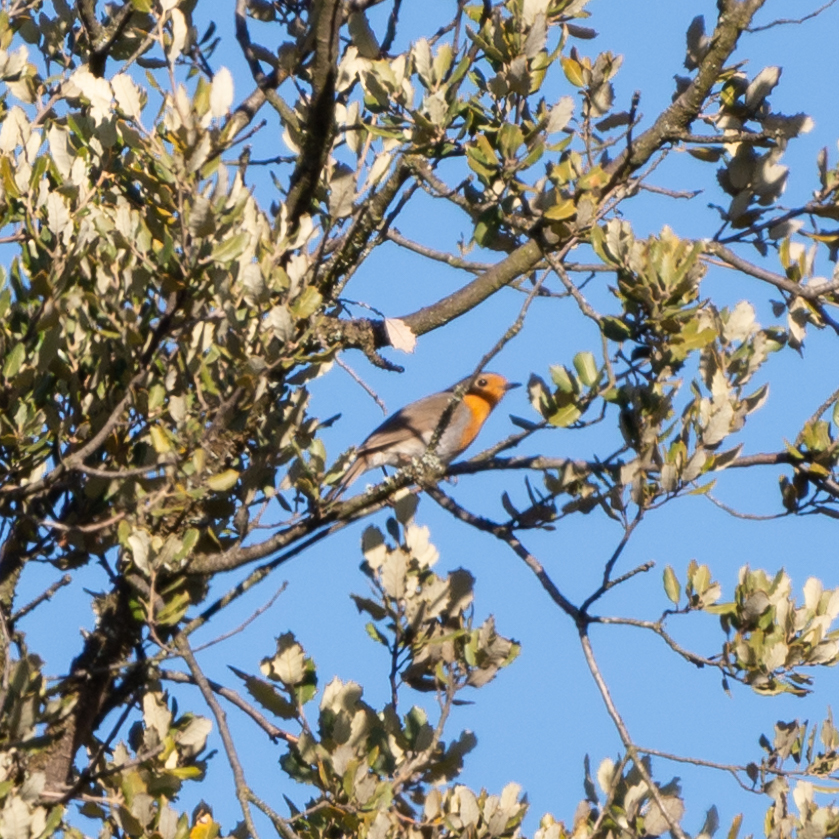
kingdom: Animalia
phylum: Chordata
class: Aves
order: Passeriformes
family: Muscicapidae
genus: Erithacus
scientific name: Erithacus rubecula
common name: European robin
